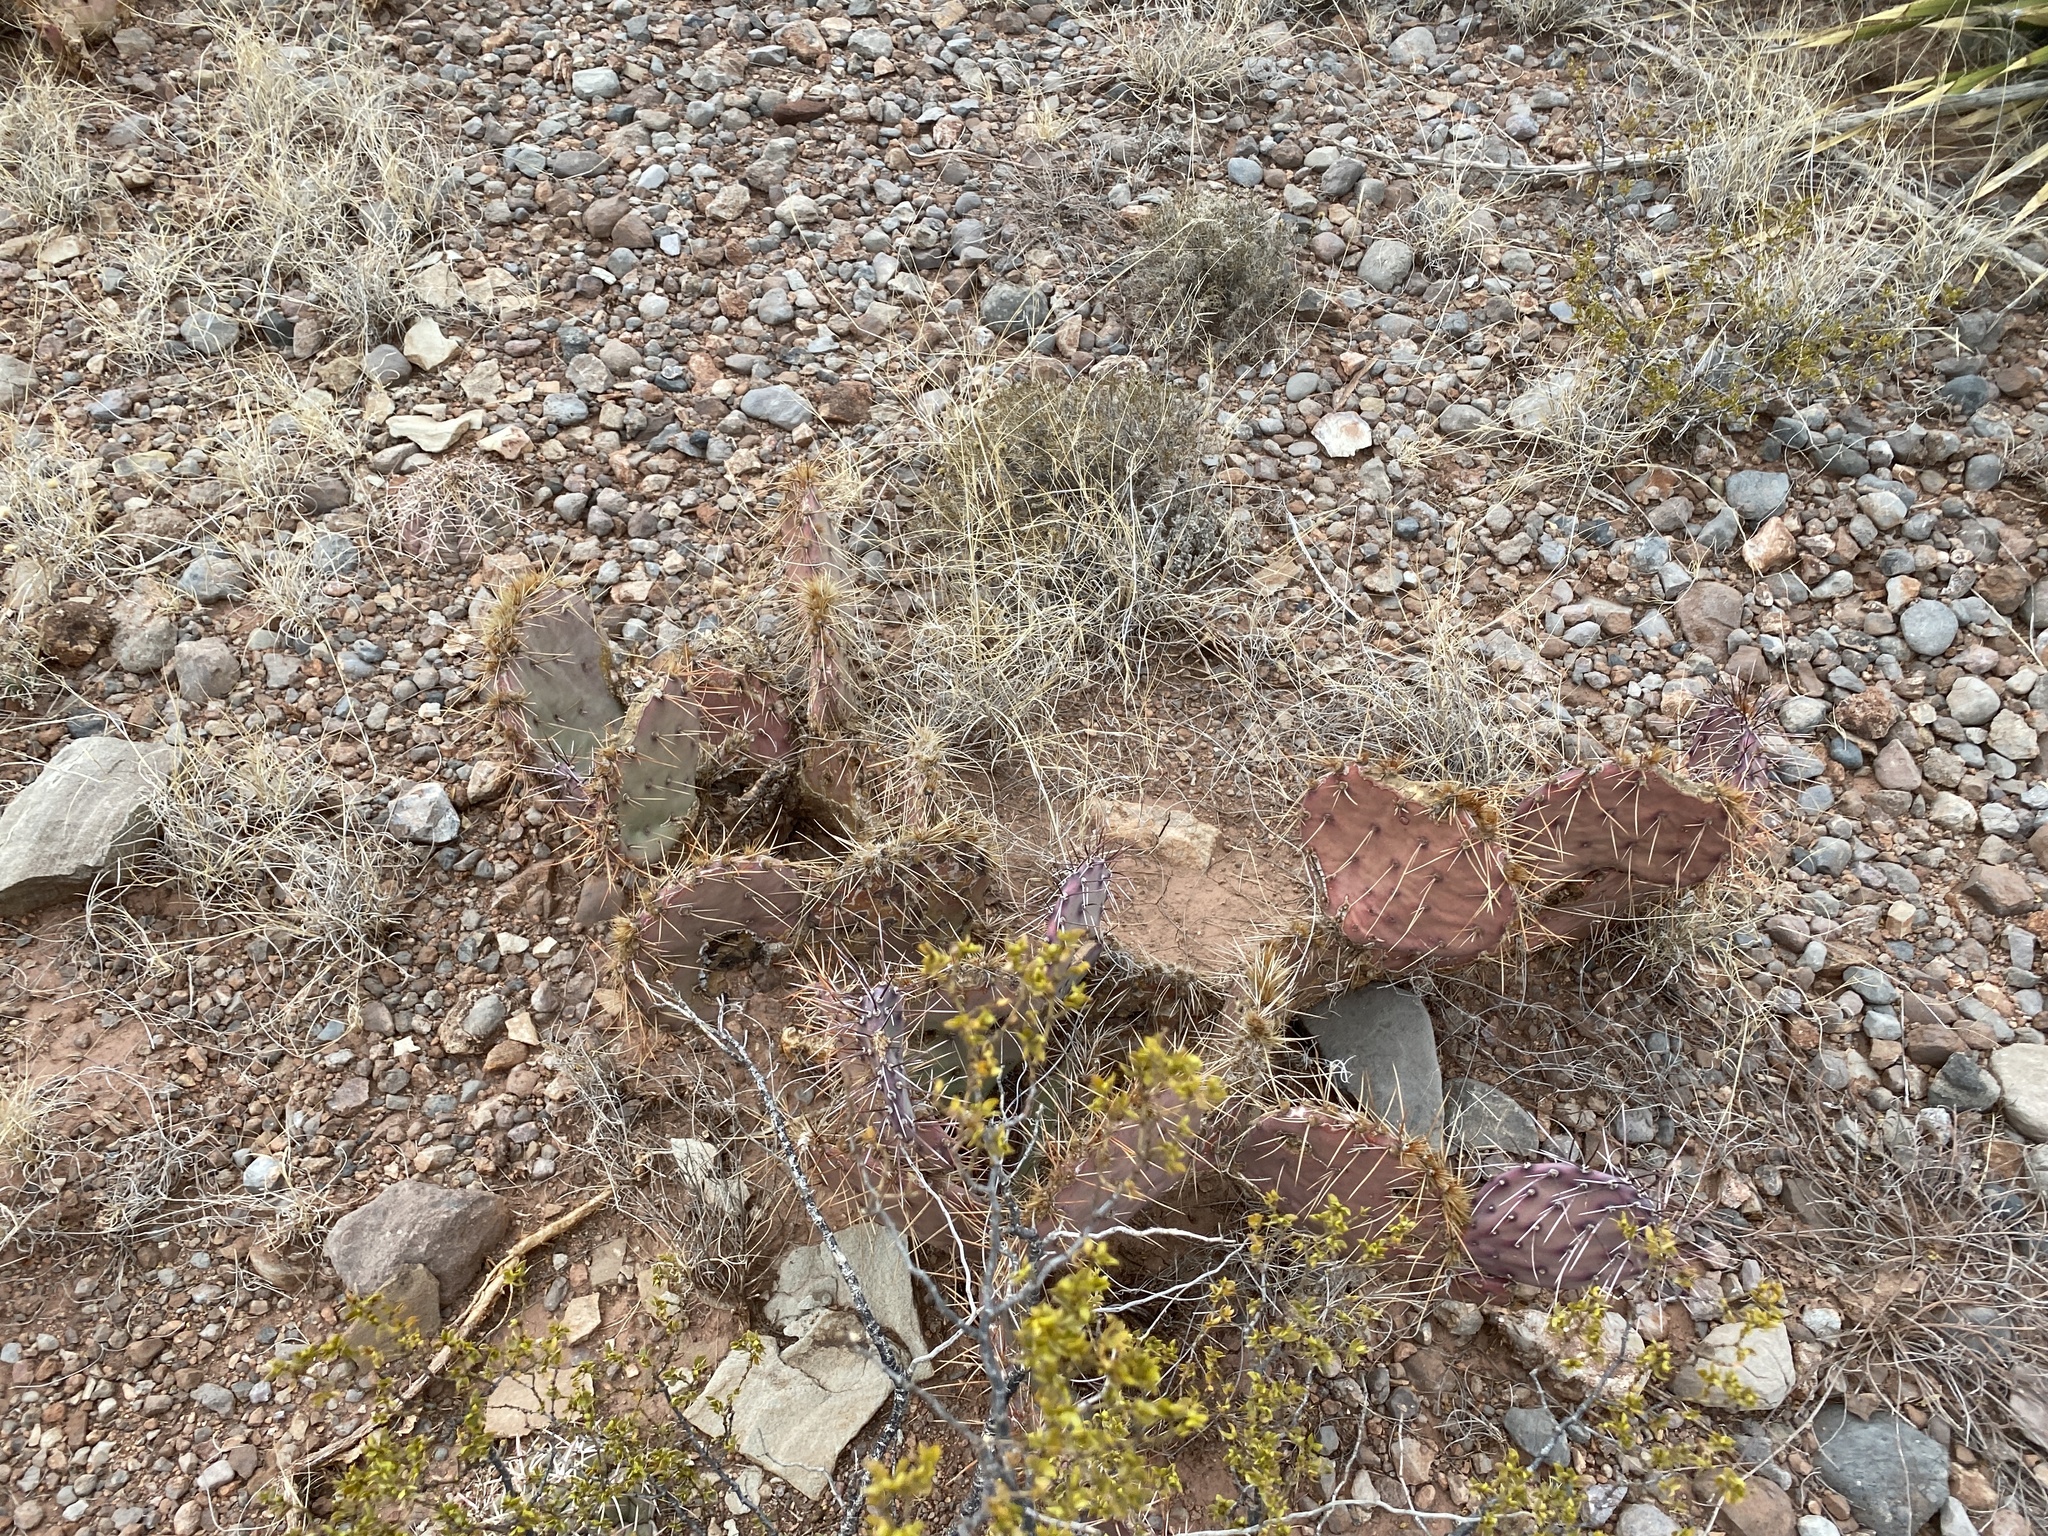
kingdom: Plantae
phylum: Tracheophyta
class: Magnoliopsida
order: Caryophyllales
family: Cactaceae
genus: Opuntia
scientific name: Opuntia macrocentra
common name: Purple prickly-pear
